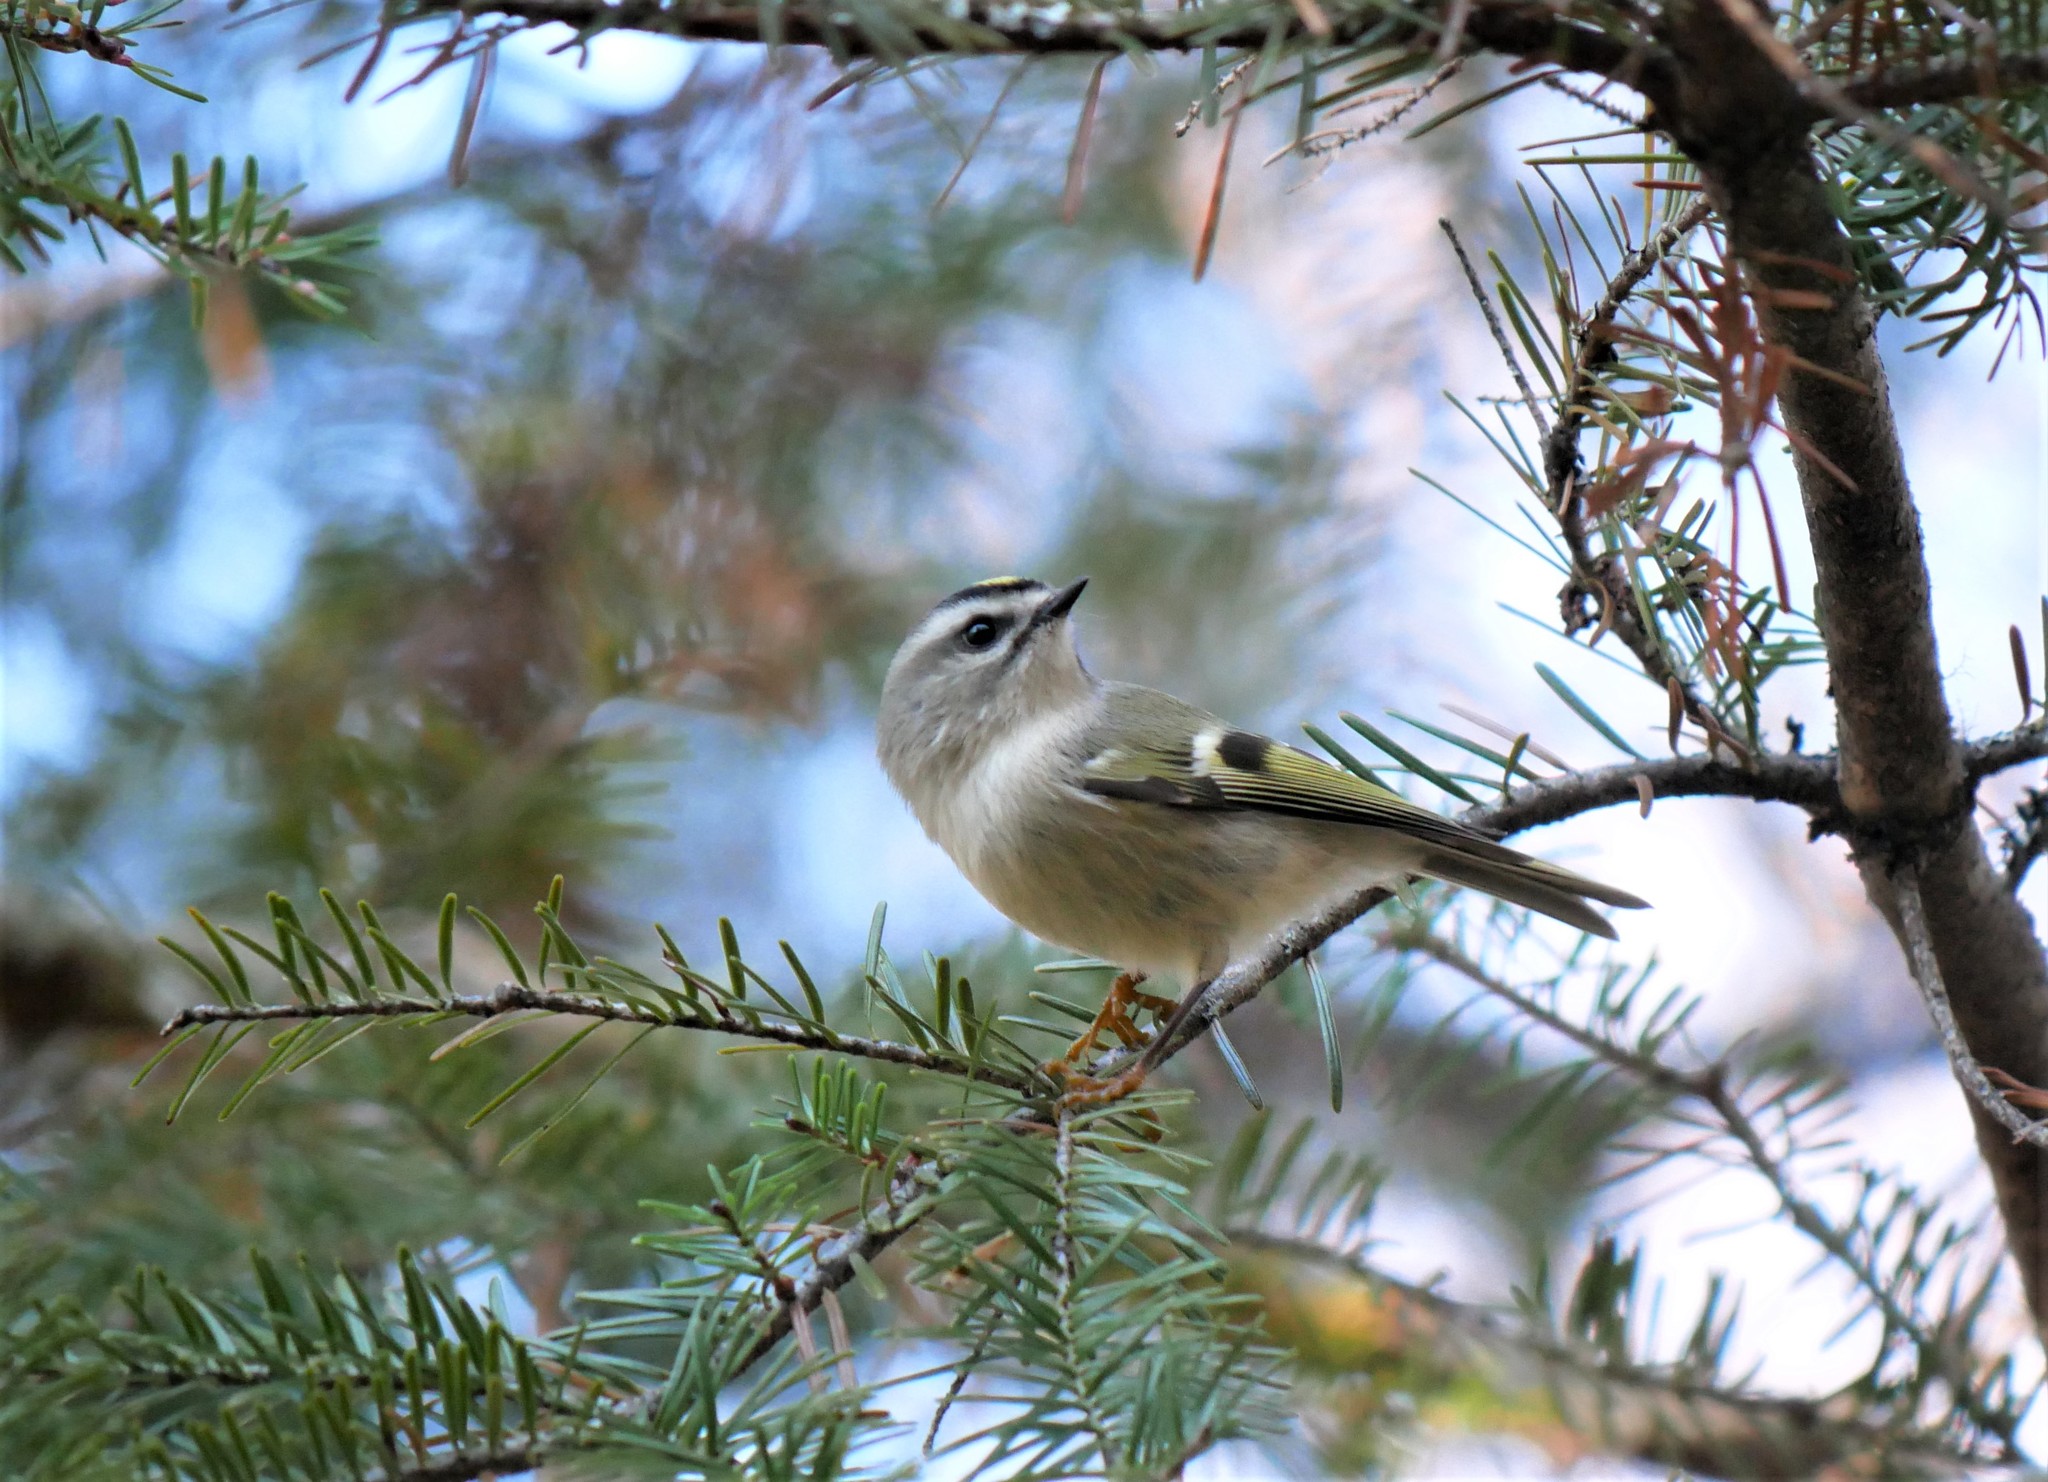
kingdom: Animalia
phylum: Chordata
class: Aves
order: Passeriformes
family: Regulidae
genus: Regulus
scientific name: Regulus satrapa
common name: Golden-crowned kinglet
